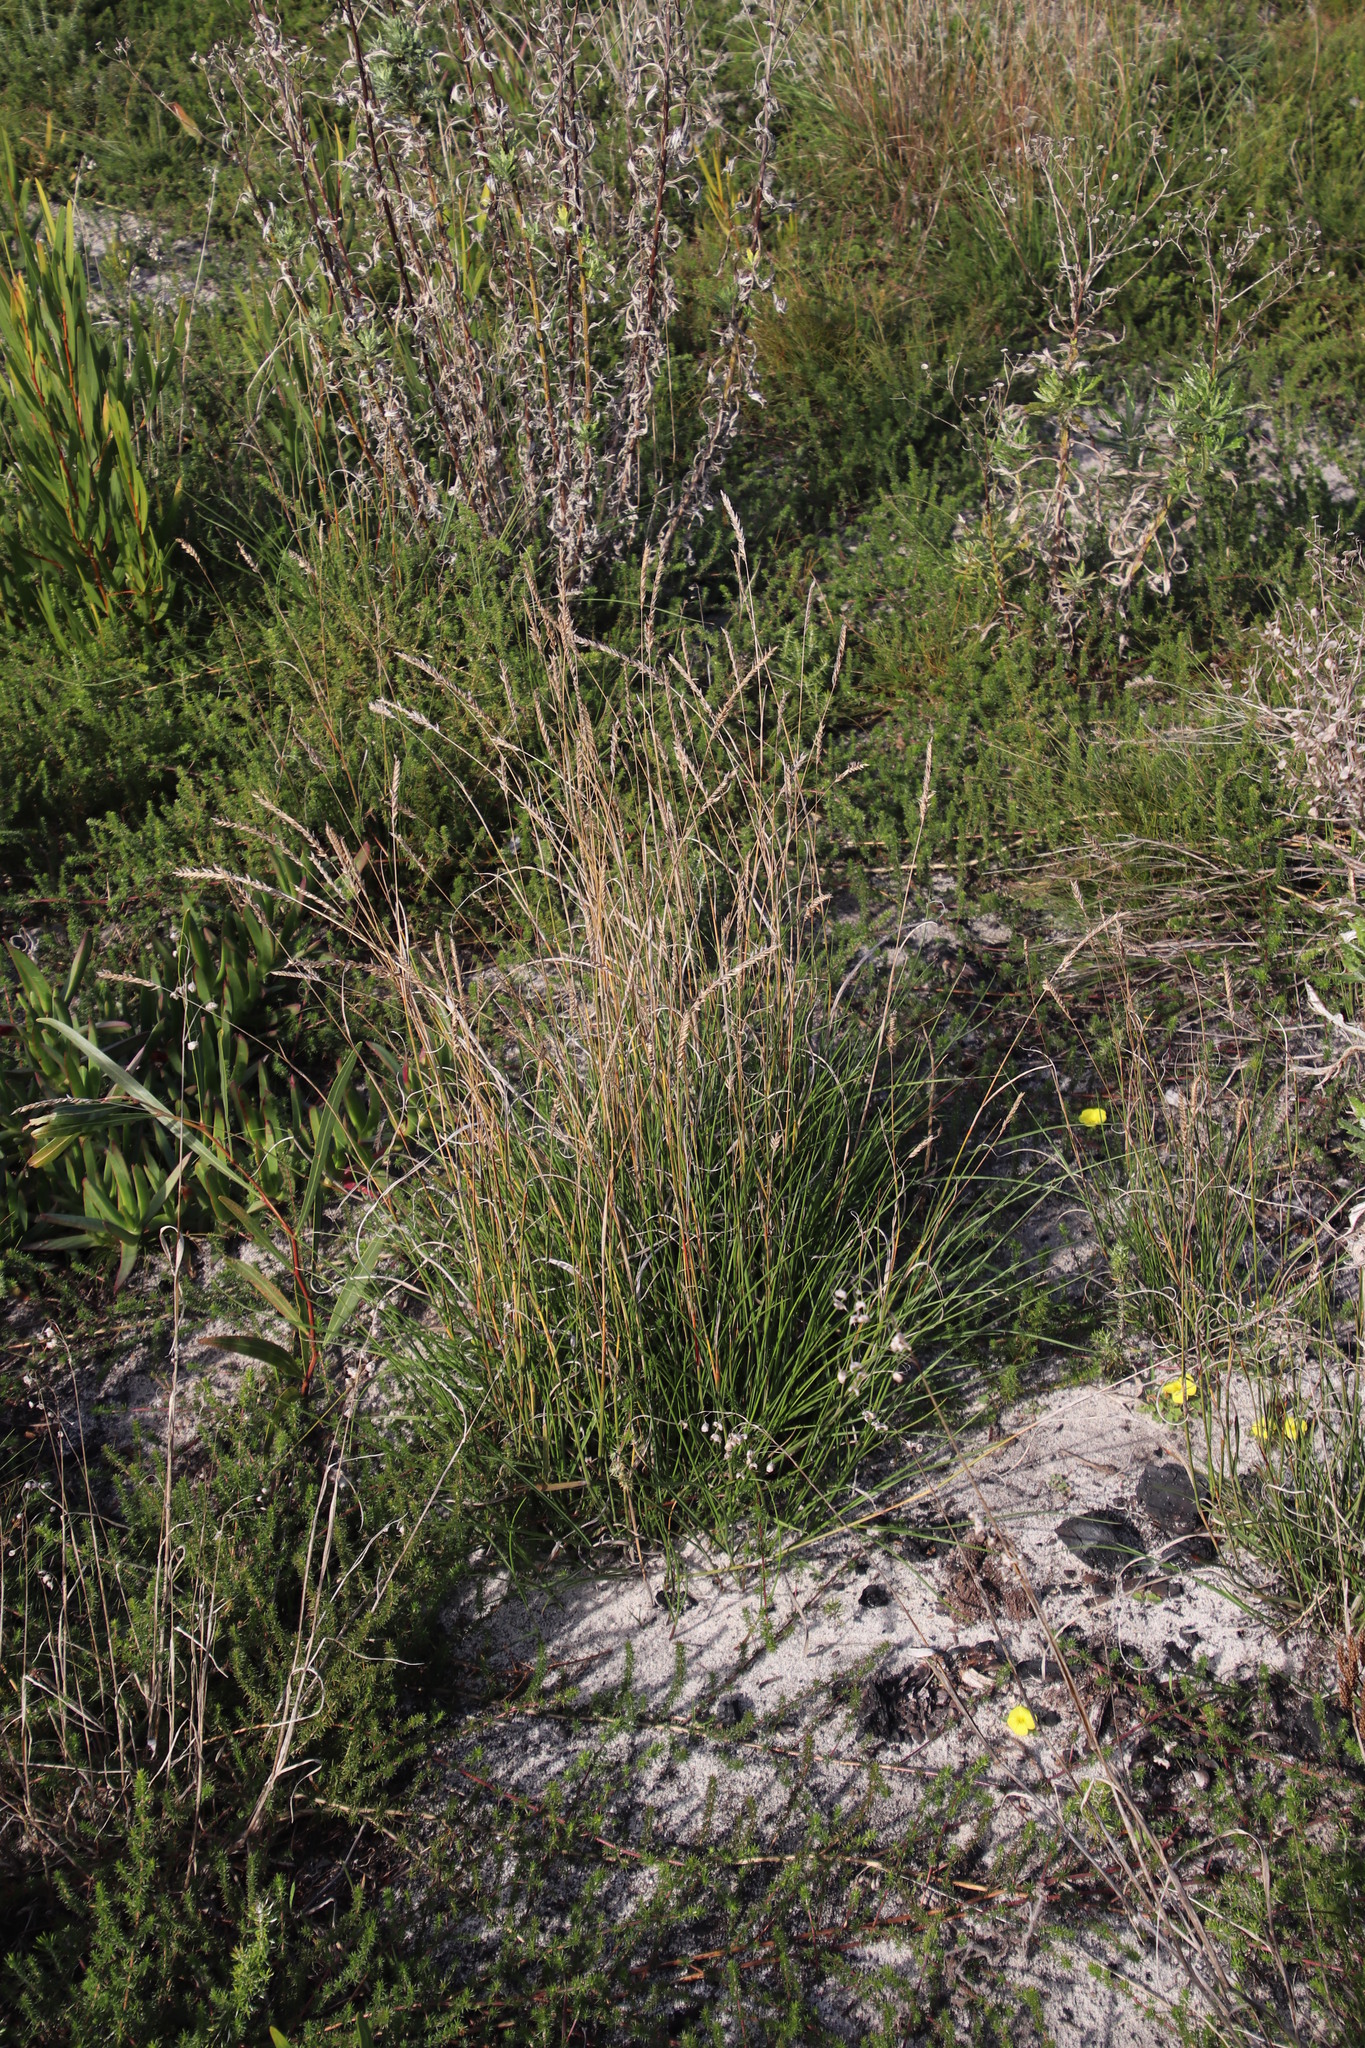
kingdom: Plantae
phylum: Tracheophyta
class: Liliopsida
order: Poales
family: Poaceae
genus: Tribolium
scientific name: Tribolium uniolae
